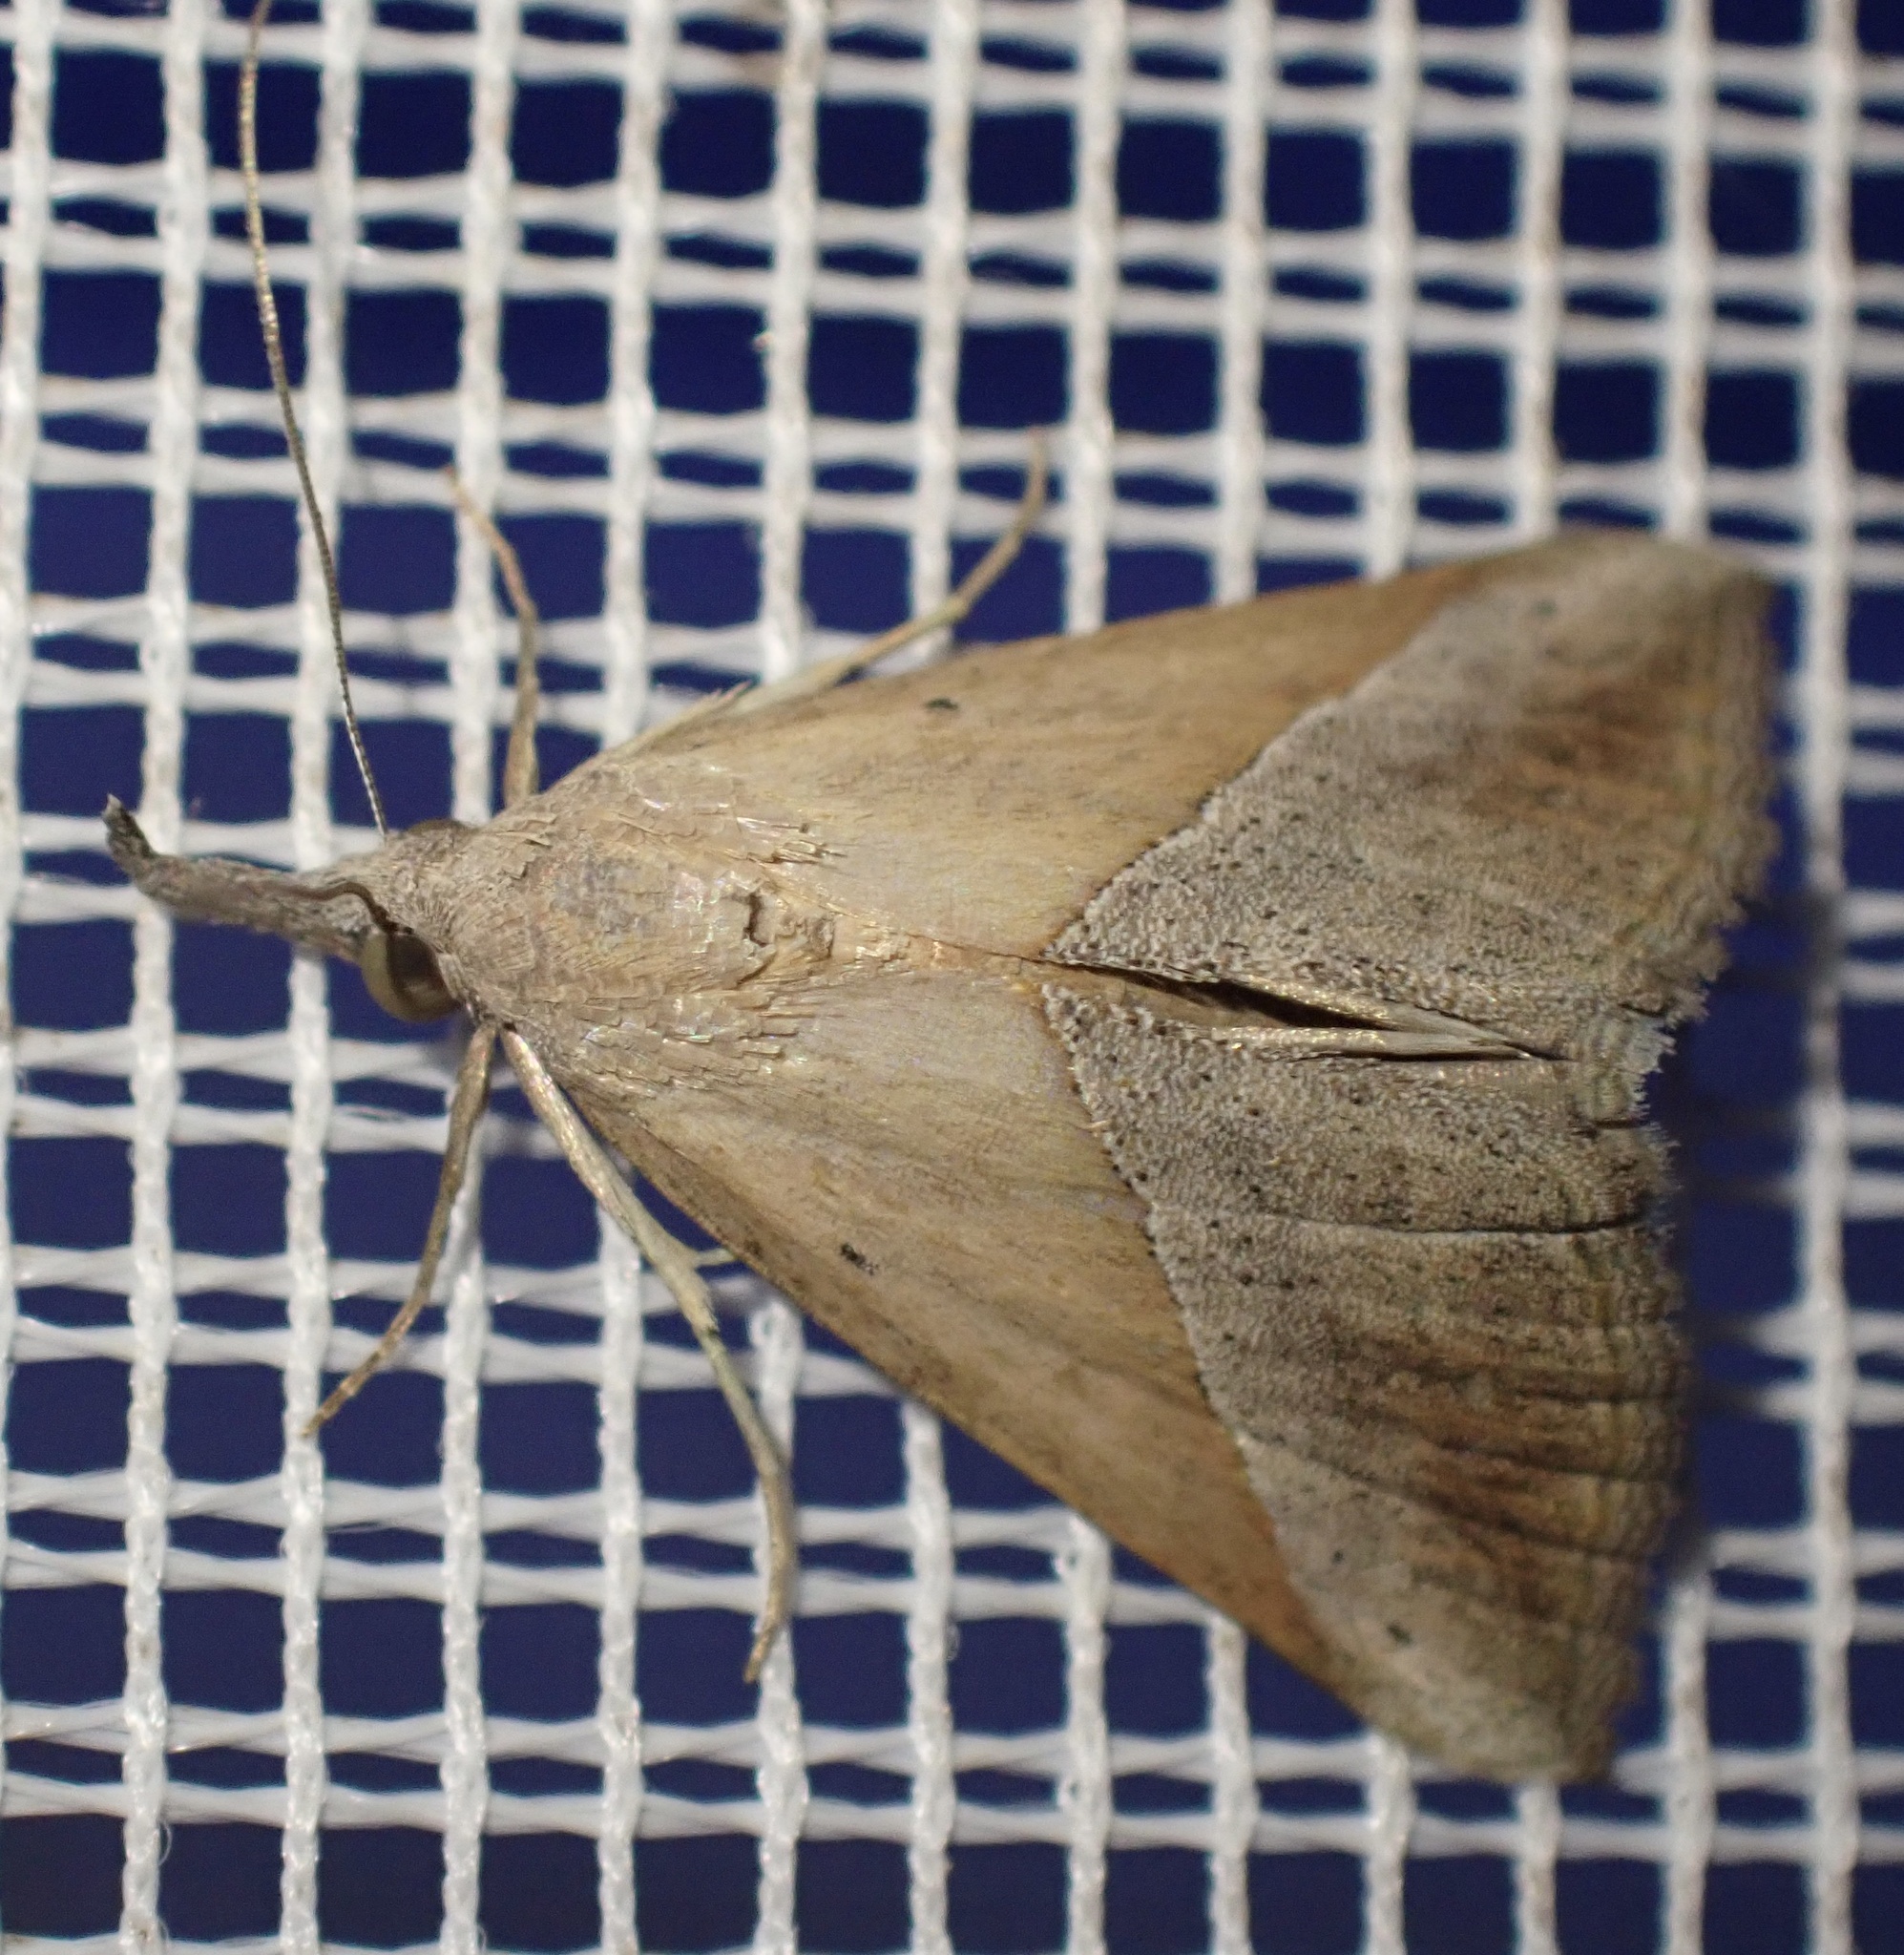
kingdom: Animalia
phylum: Arthropoda
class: Insecta
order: Lepidoptera
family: Erebidae
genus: Hypena
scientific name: Hypena lividalis
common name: Chevron snout
